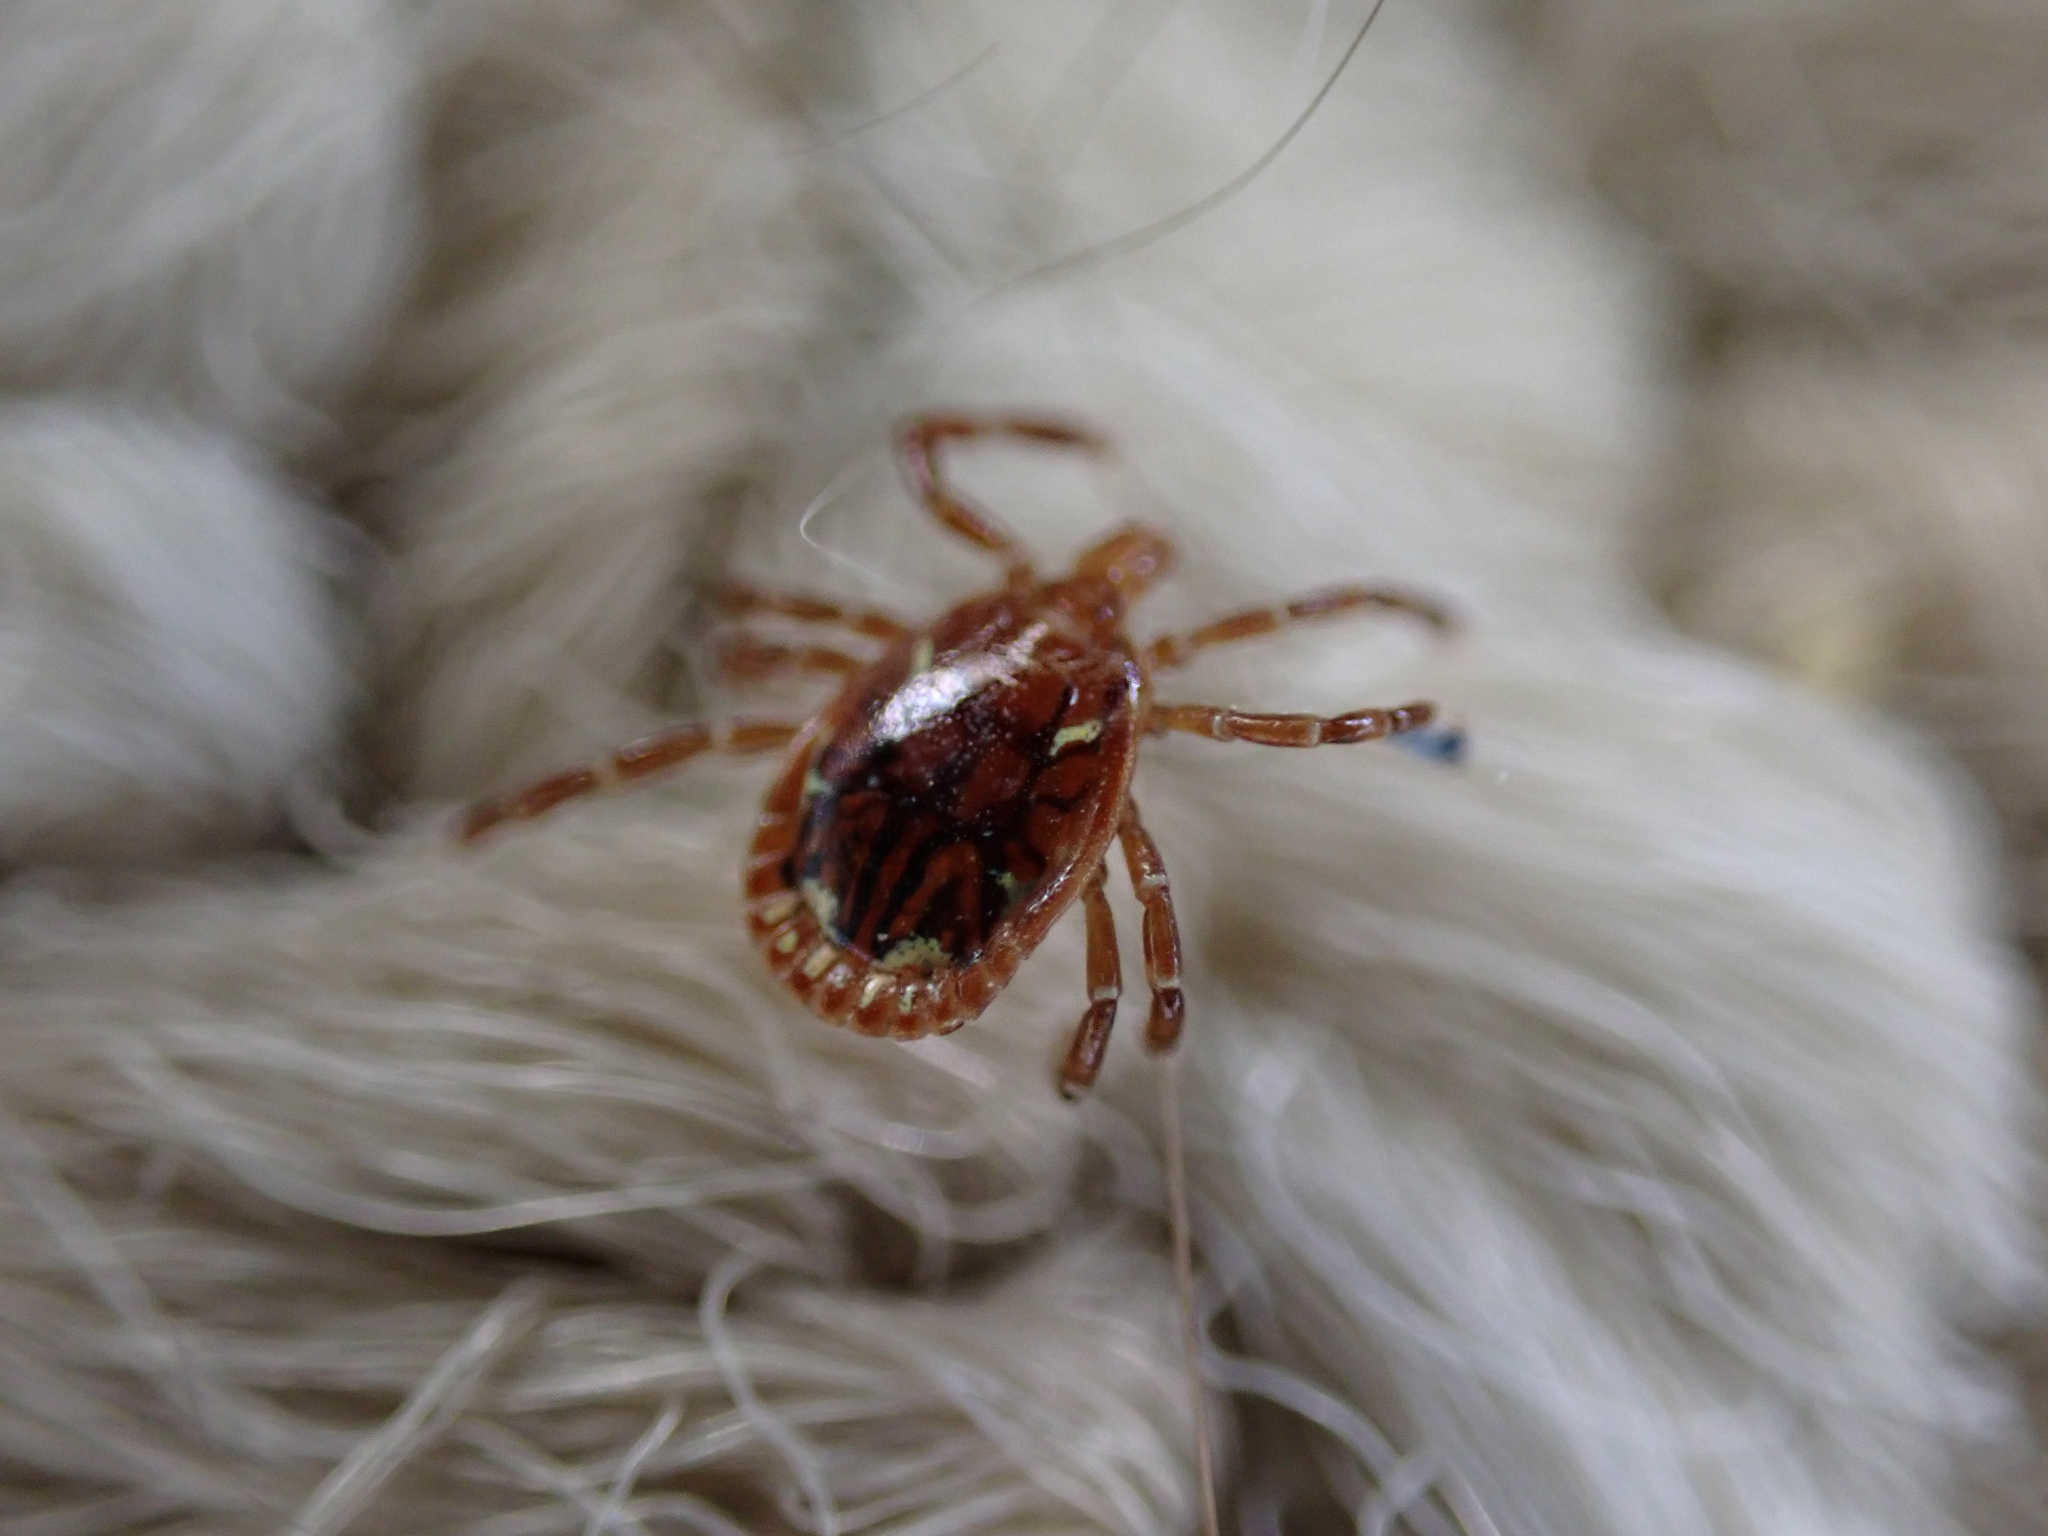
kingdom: Animalia
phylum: Arthropoda
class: Arachnida
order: Ixodida
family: Ixodidae
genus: Amblyomma
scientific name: Amblyomma americanum
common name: Lone star tick
